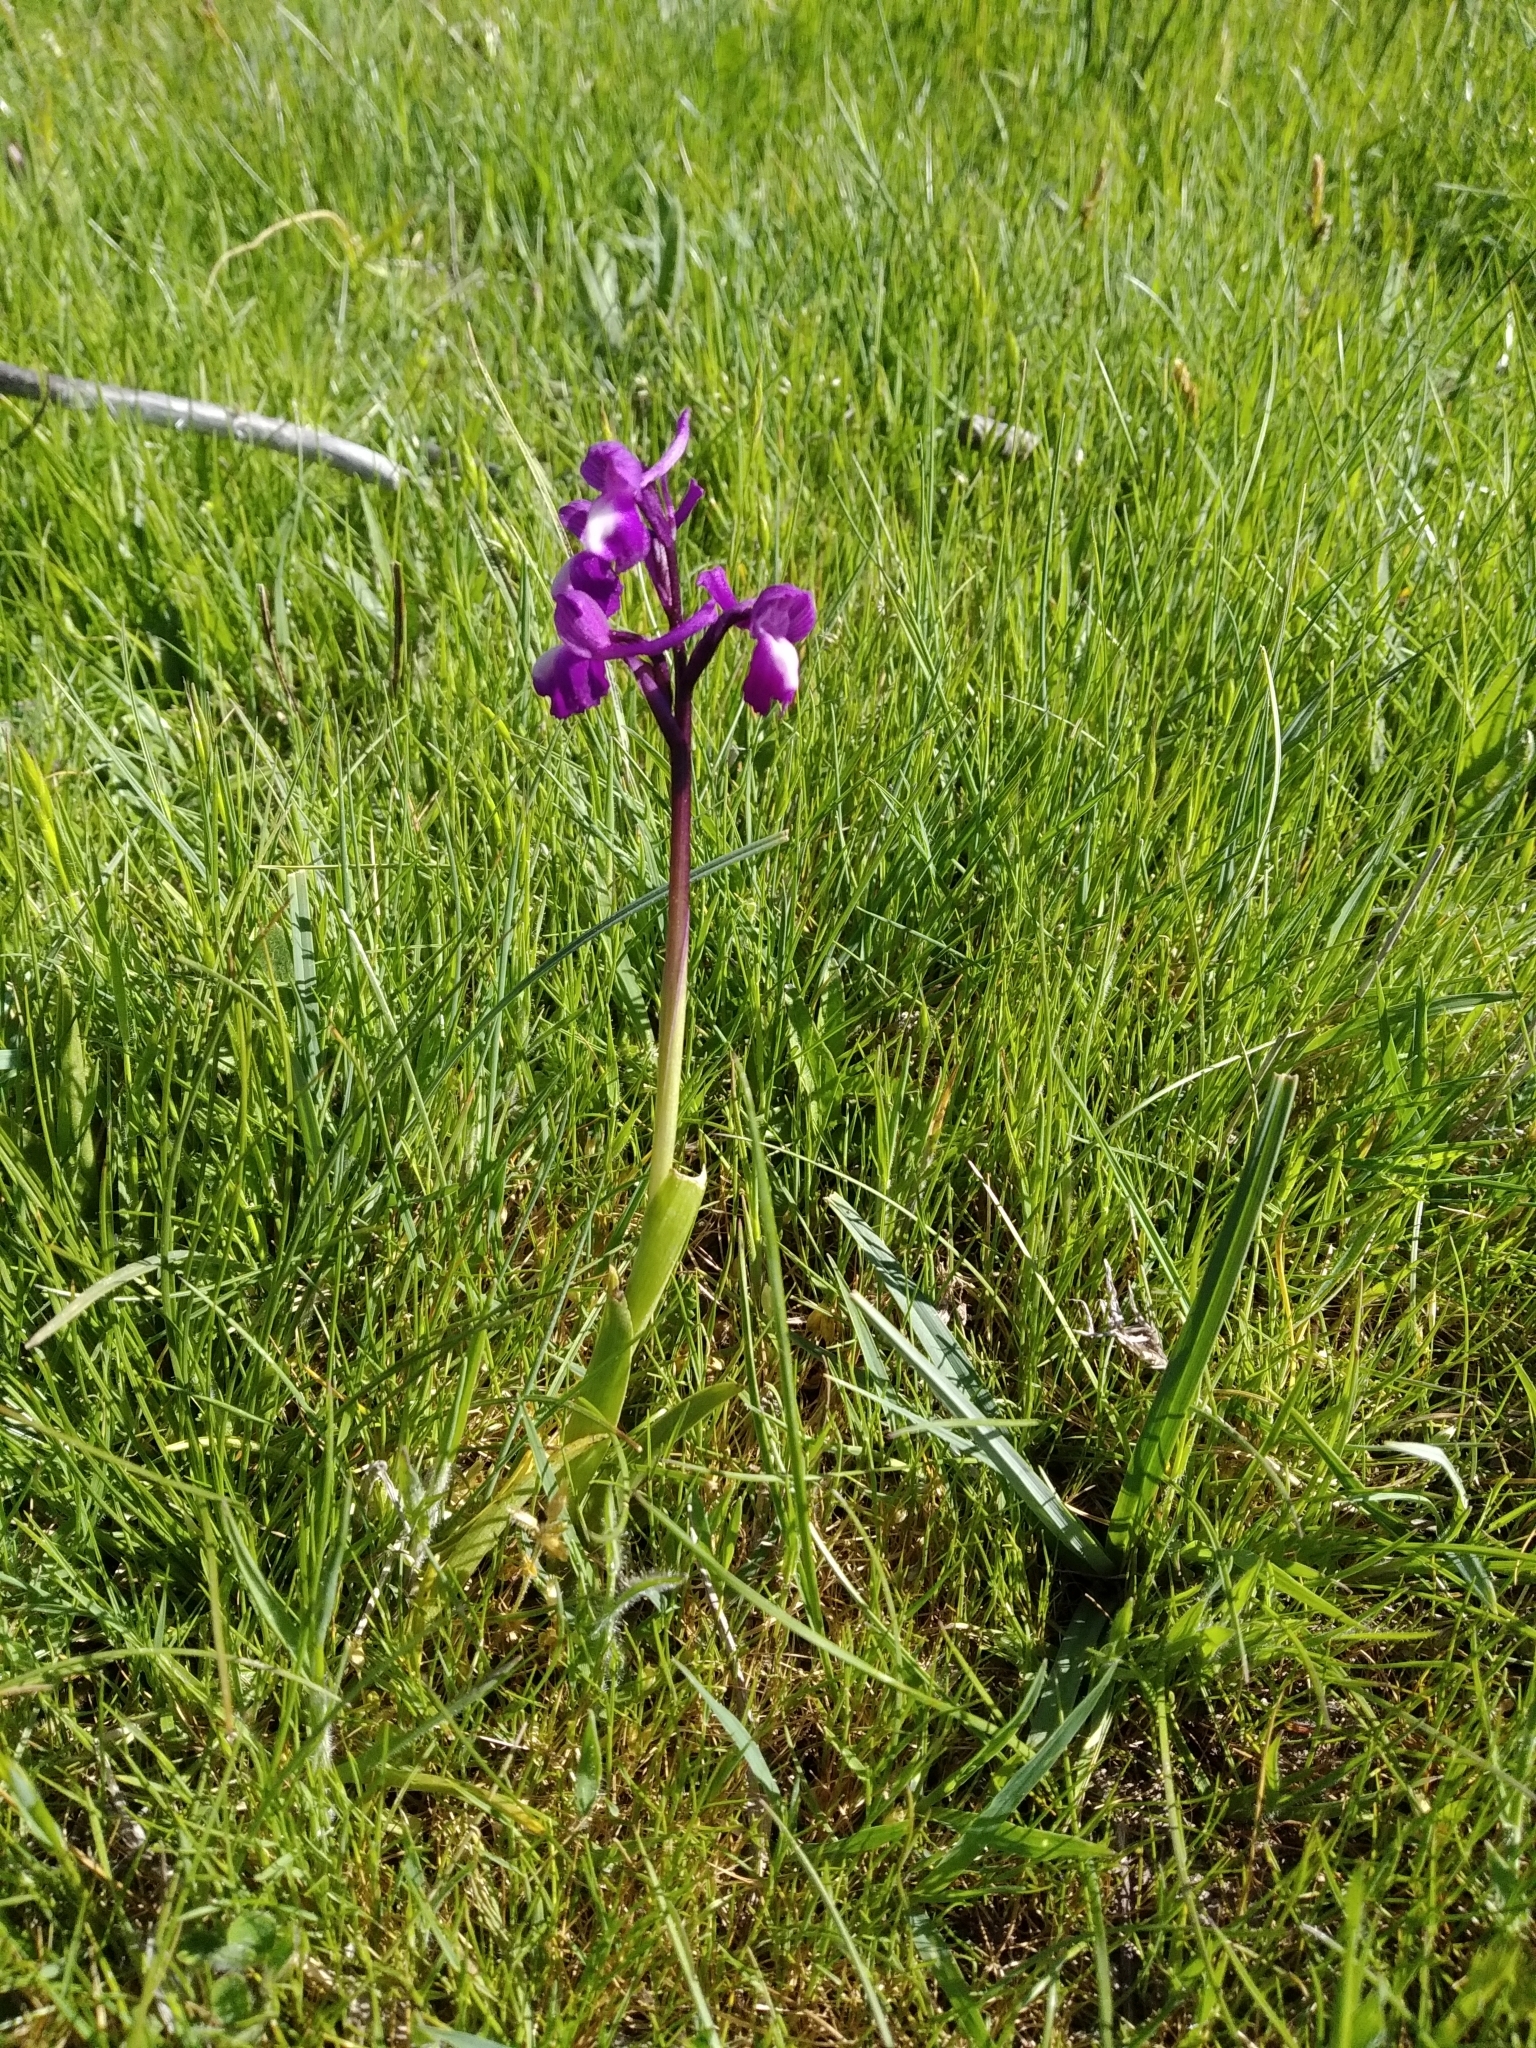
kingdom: Plantae
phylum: Tracheophyta
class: Liliopsida
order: Asparagales
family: Orchidaceae
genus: Anacamptis
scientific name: Anacamptis morio
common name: Green-winged orchid
